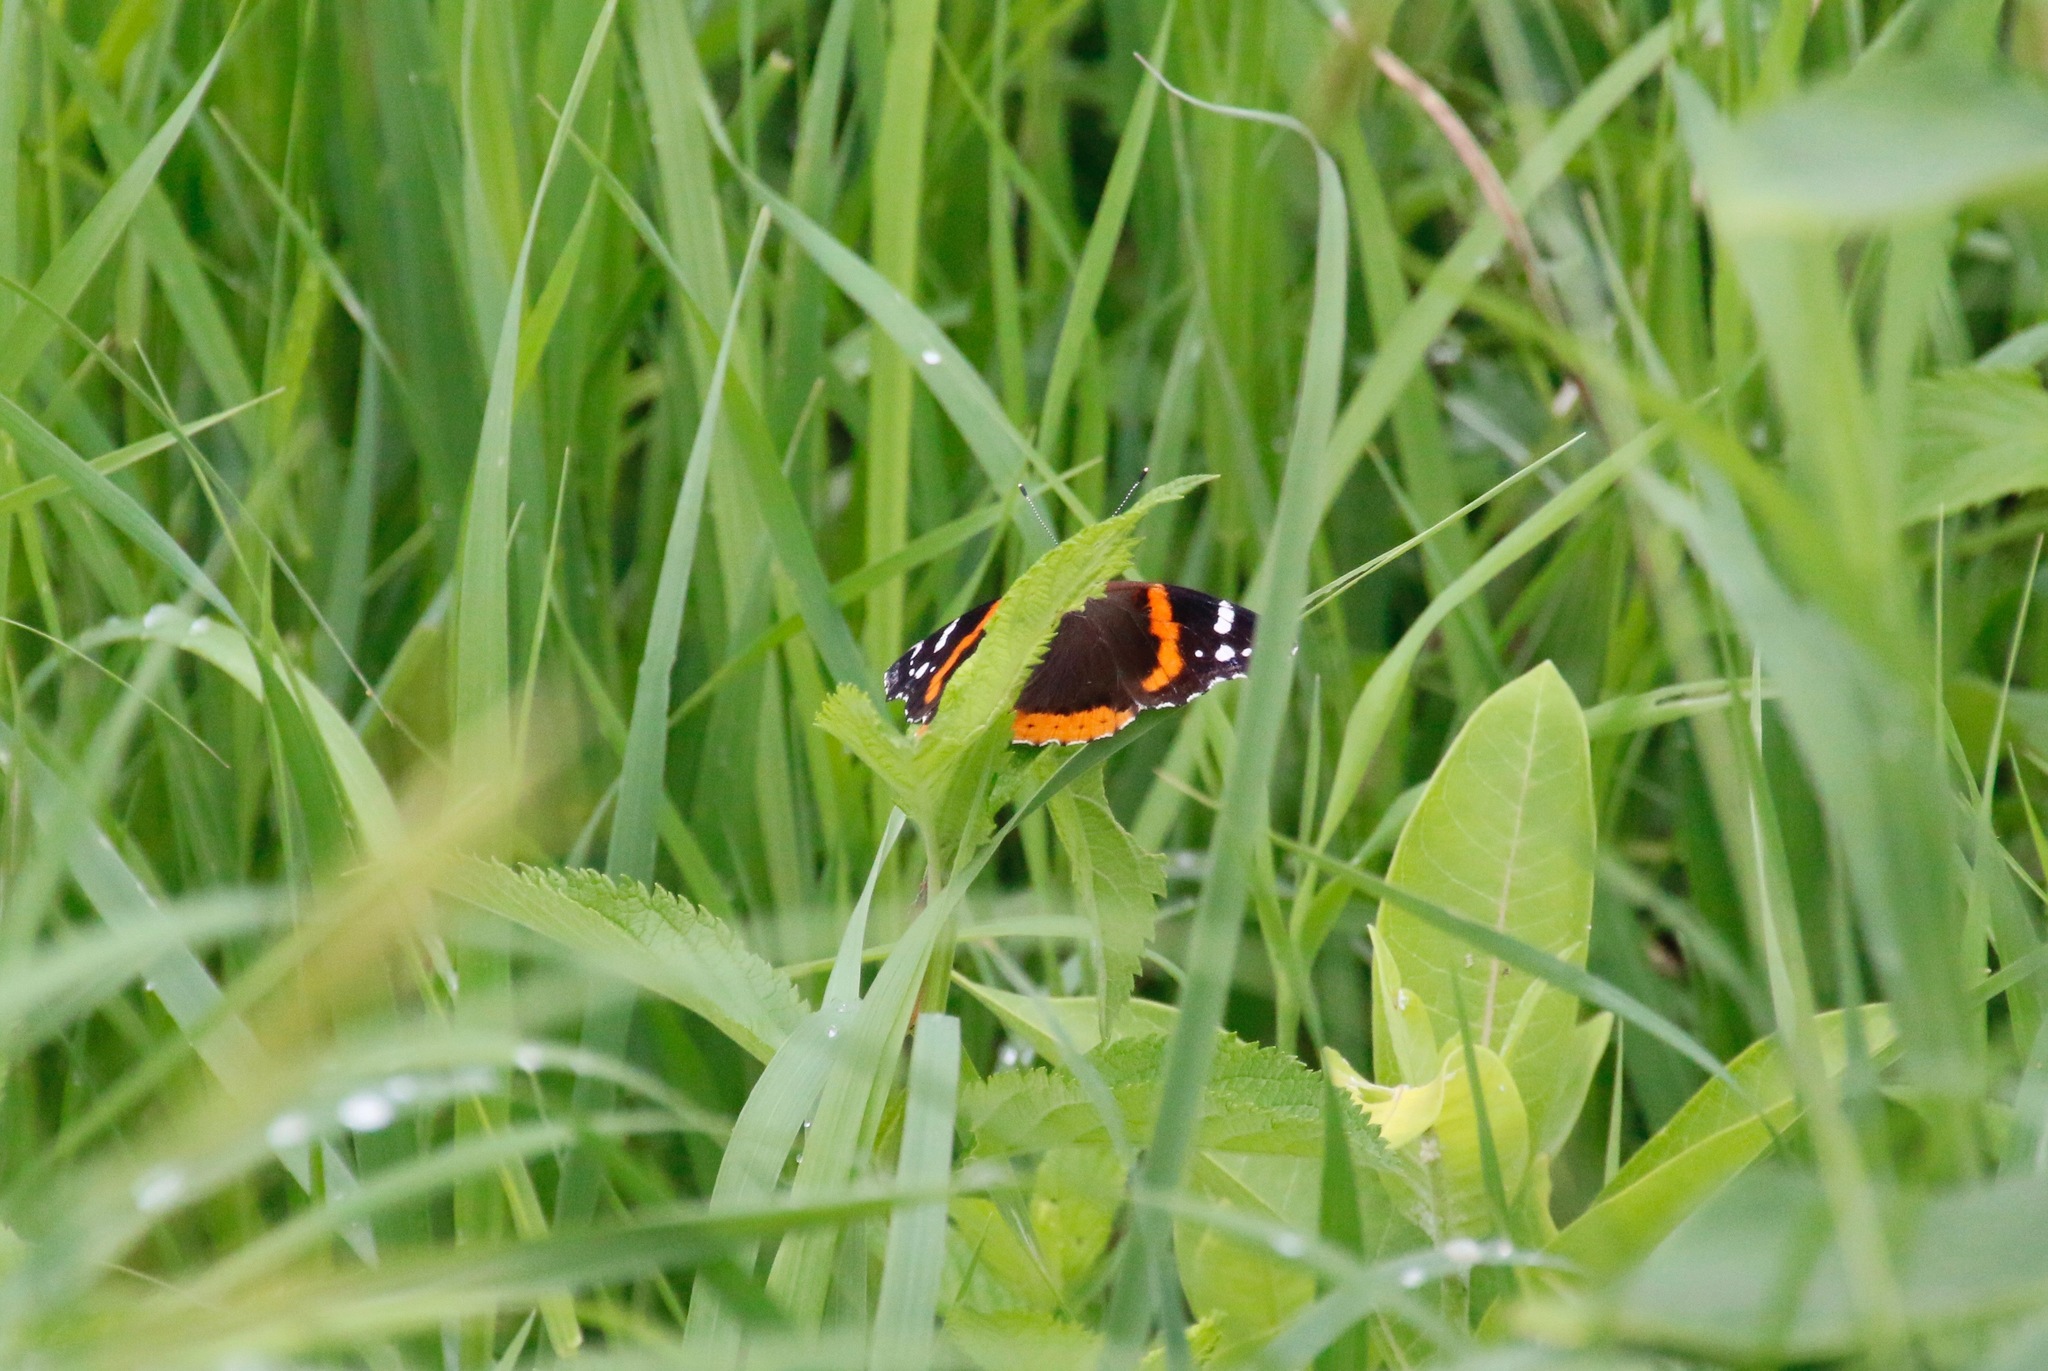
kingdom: Animalia
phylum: Arthropoda
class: Insecta
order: Lepidoptera
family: Nymphalidae
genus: Vanessa
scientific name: Vanessa atalanta
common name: Red admiral
